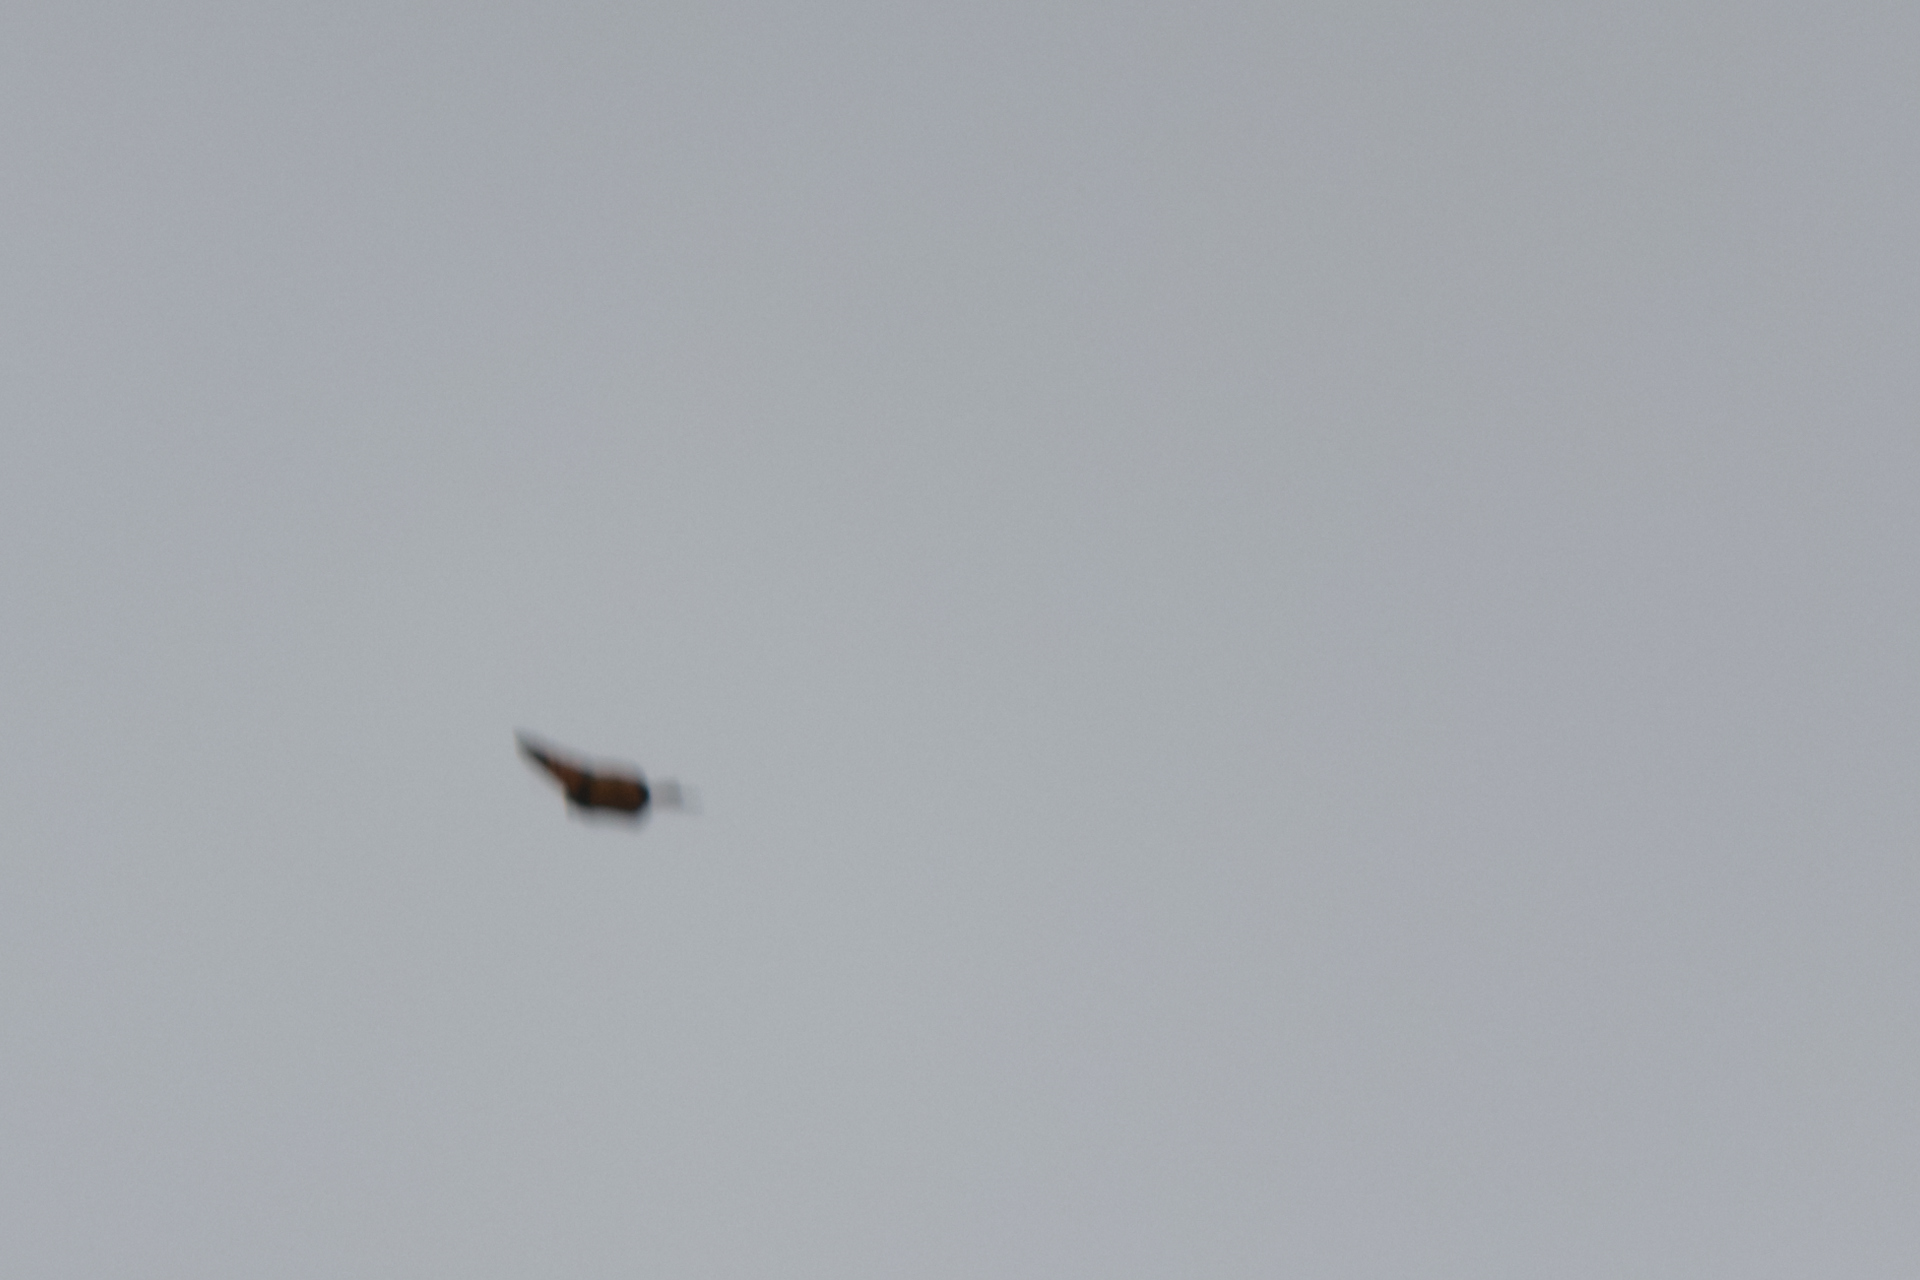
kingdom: Animalia
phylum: Arthropoda
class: Insecta
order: Lepidoptera
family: Nymphalidae
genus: Danaus
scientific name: Danaus plexippus
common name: Monarch
